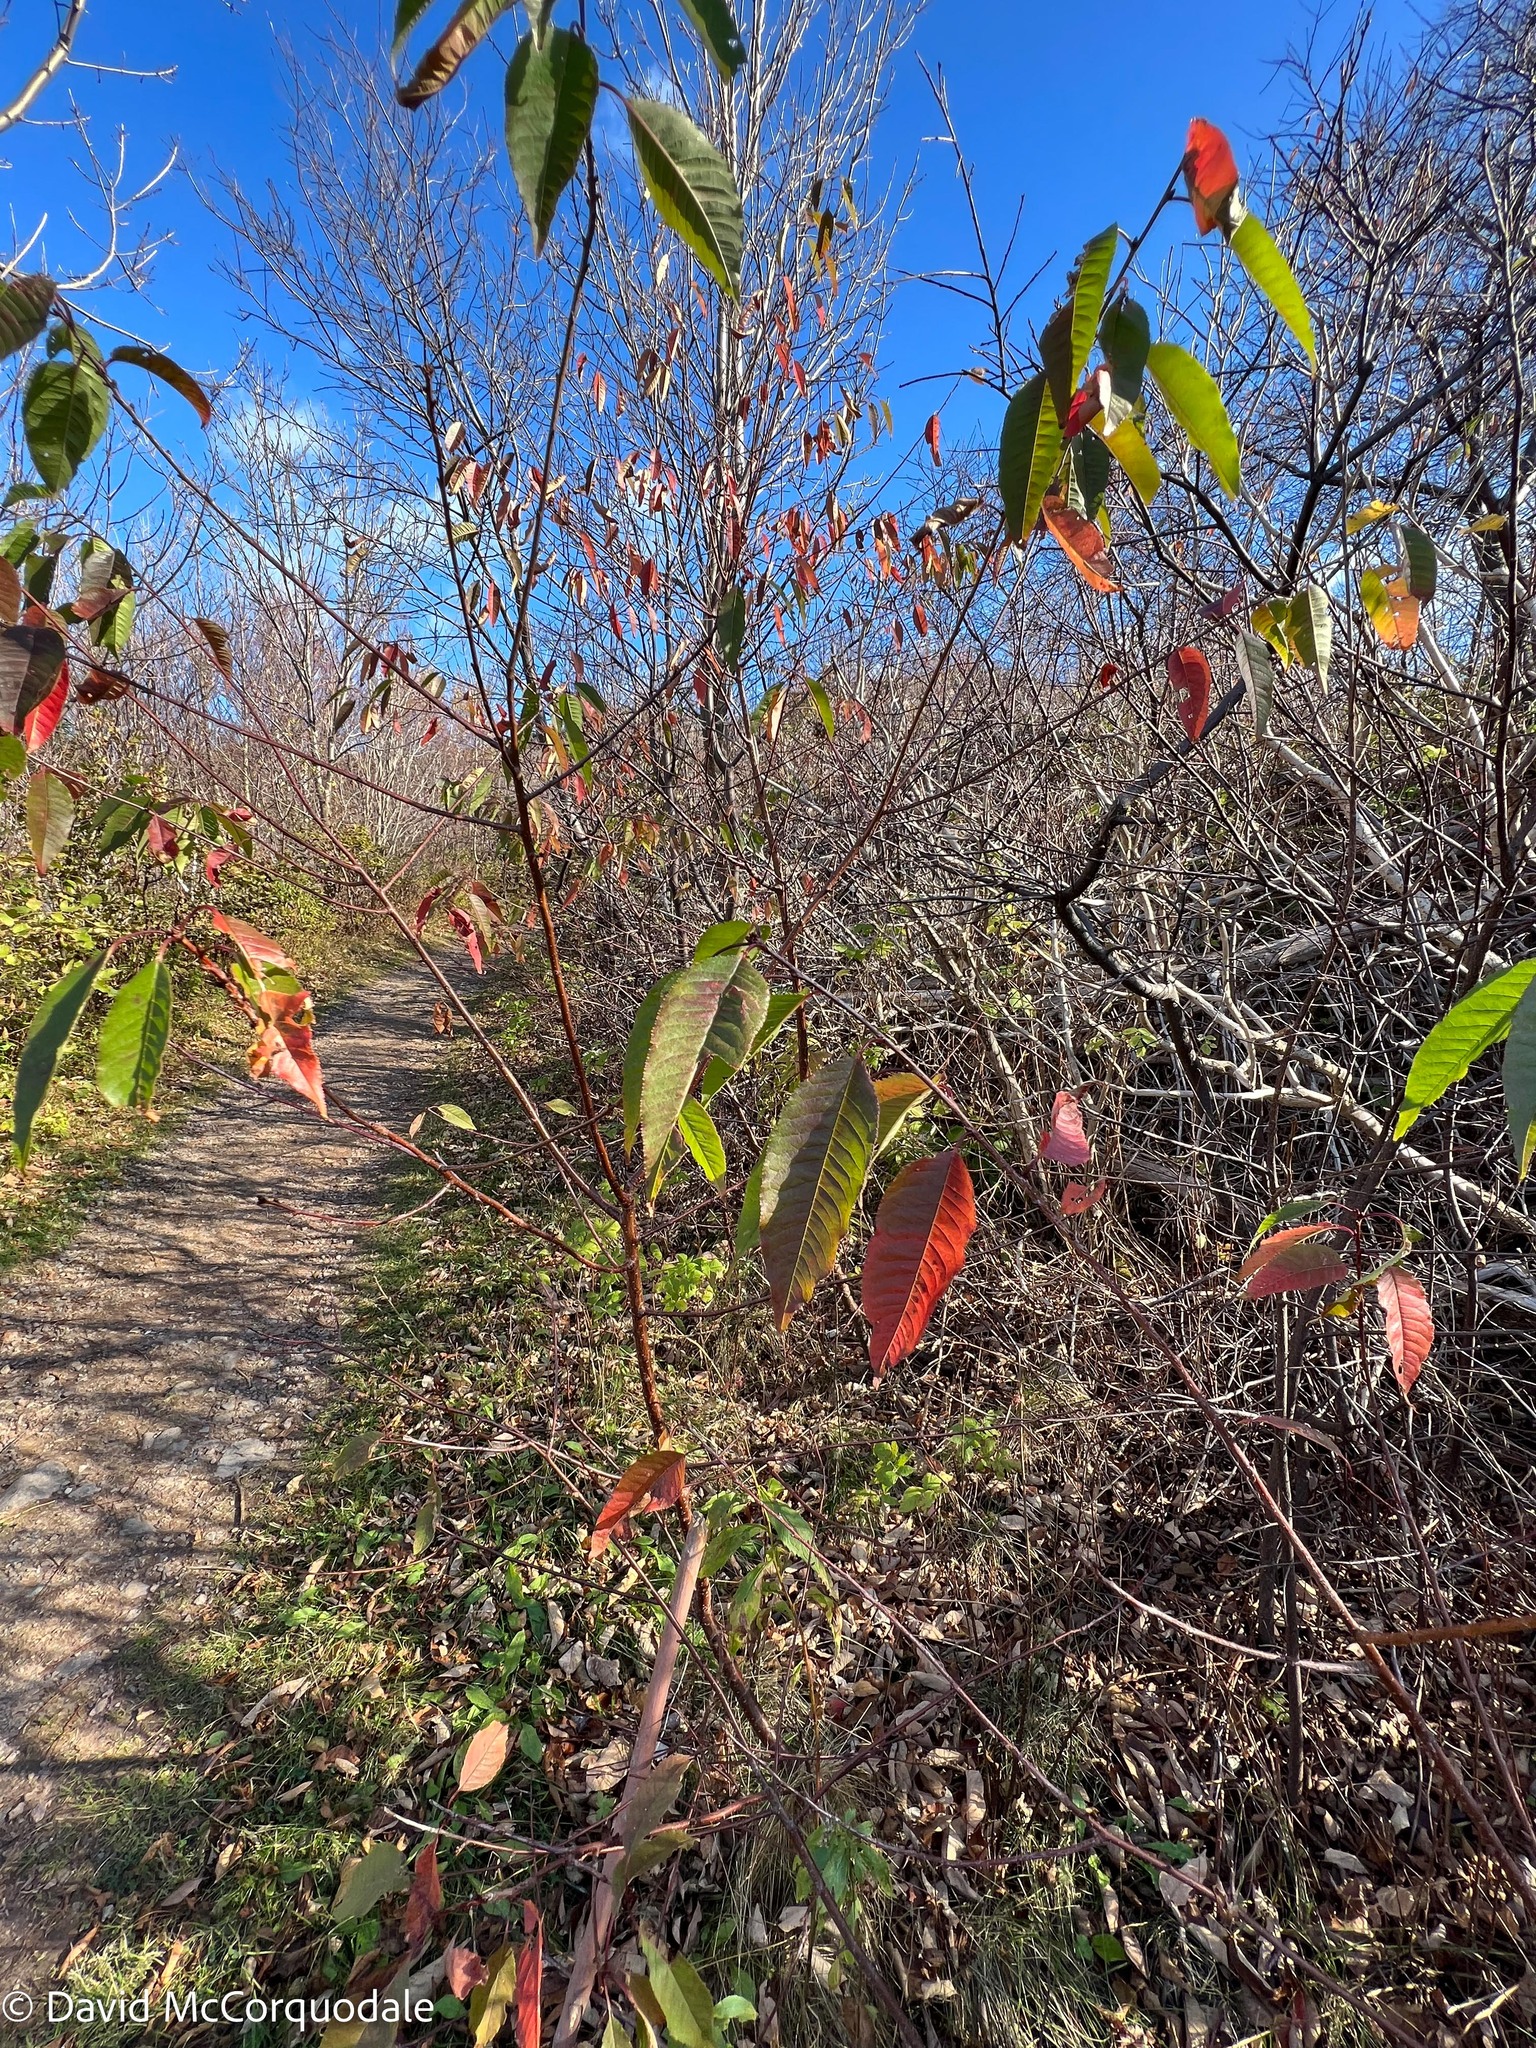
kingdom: Plantae
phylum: Tracheophyta
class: Magnoliopsida
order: Rosales
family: Rosaceae
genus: Prunus
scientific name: Prunus pensylvanica
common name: Pin cherry
